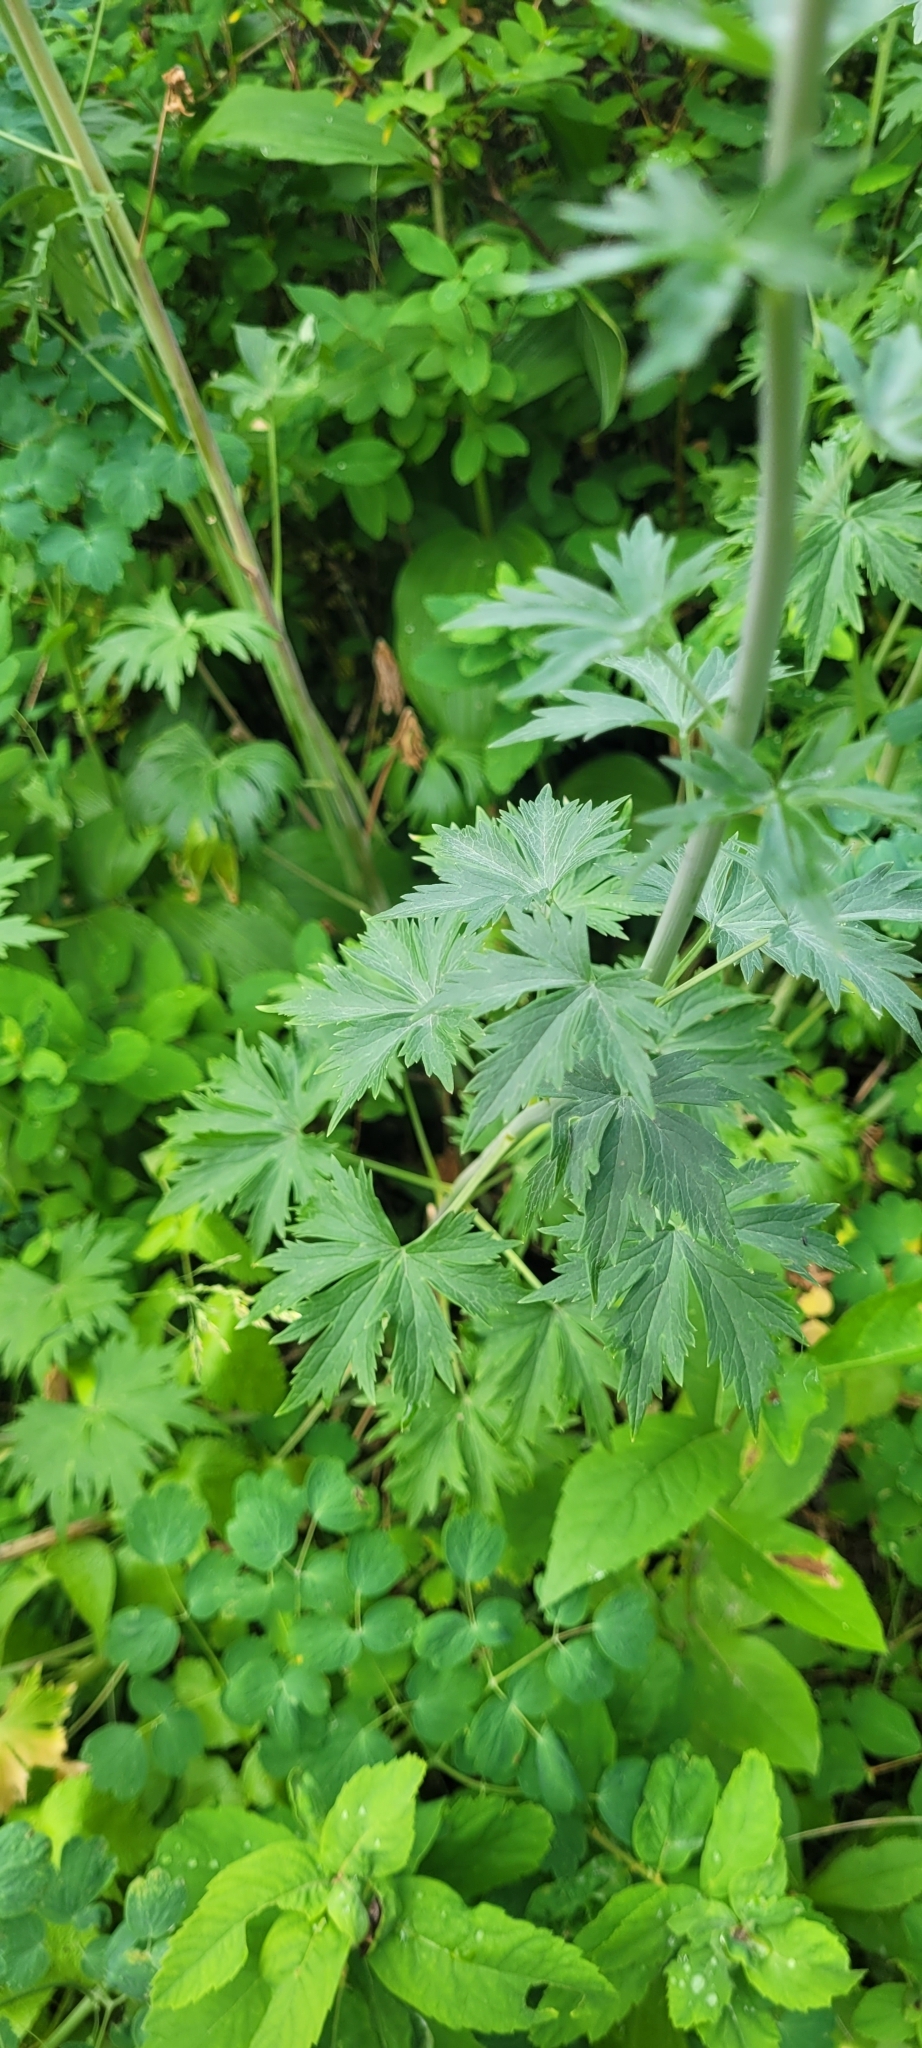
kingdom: Plantae
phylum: Tracheophyta
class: Magnoliopsida
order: Ranunculales
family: Ranunculaceae
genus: Delphinium
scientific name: Delphinium glaucum
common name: Brown's larkspur
